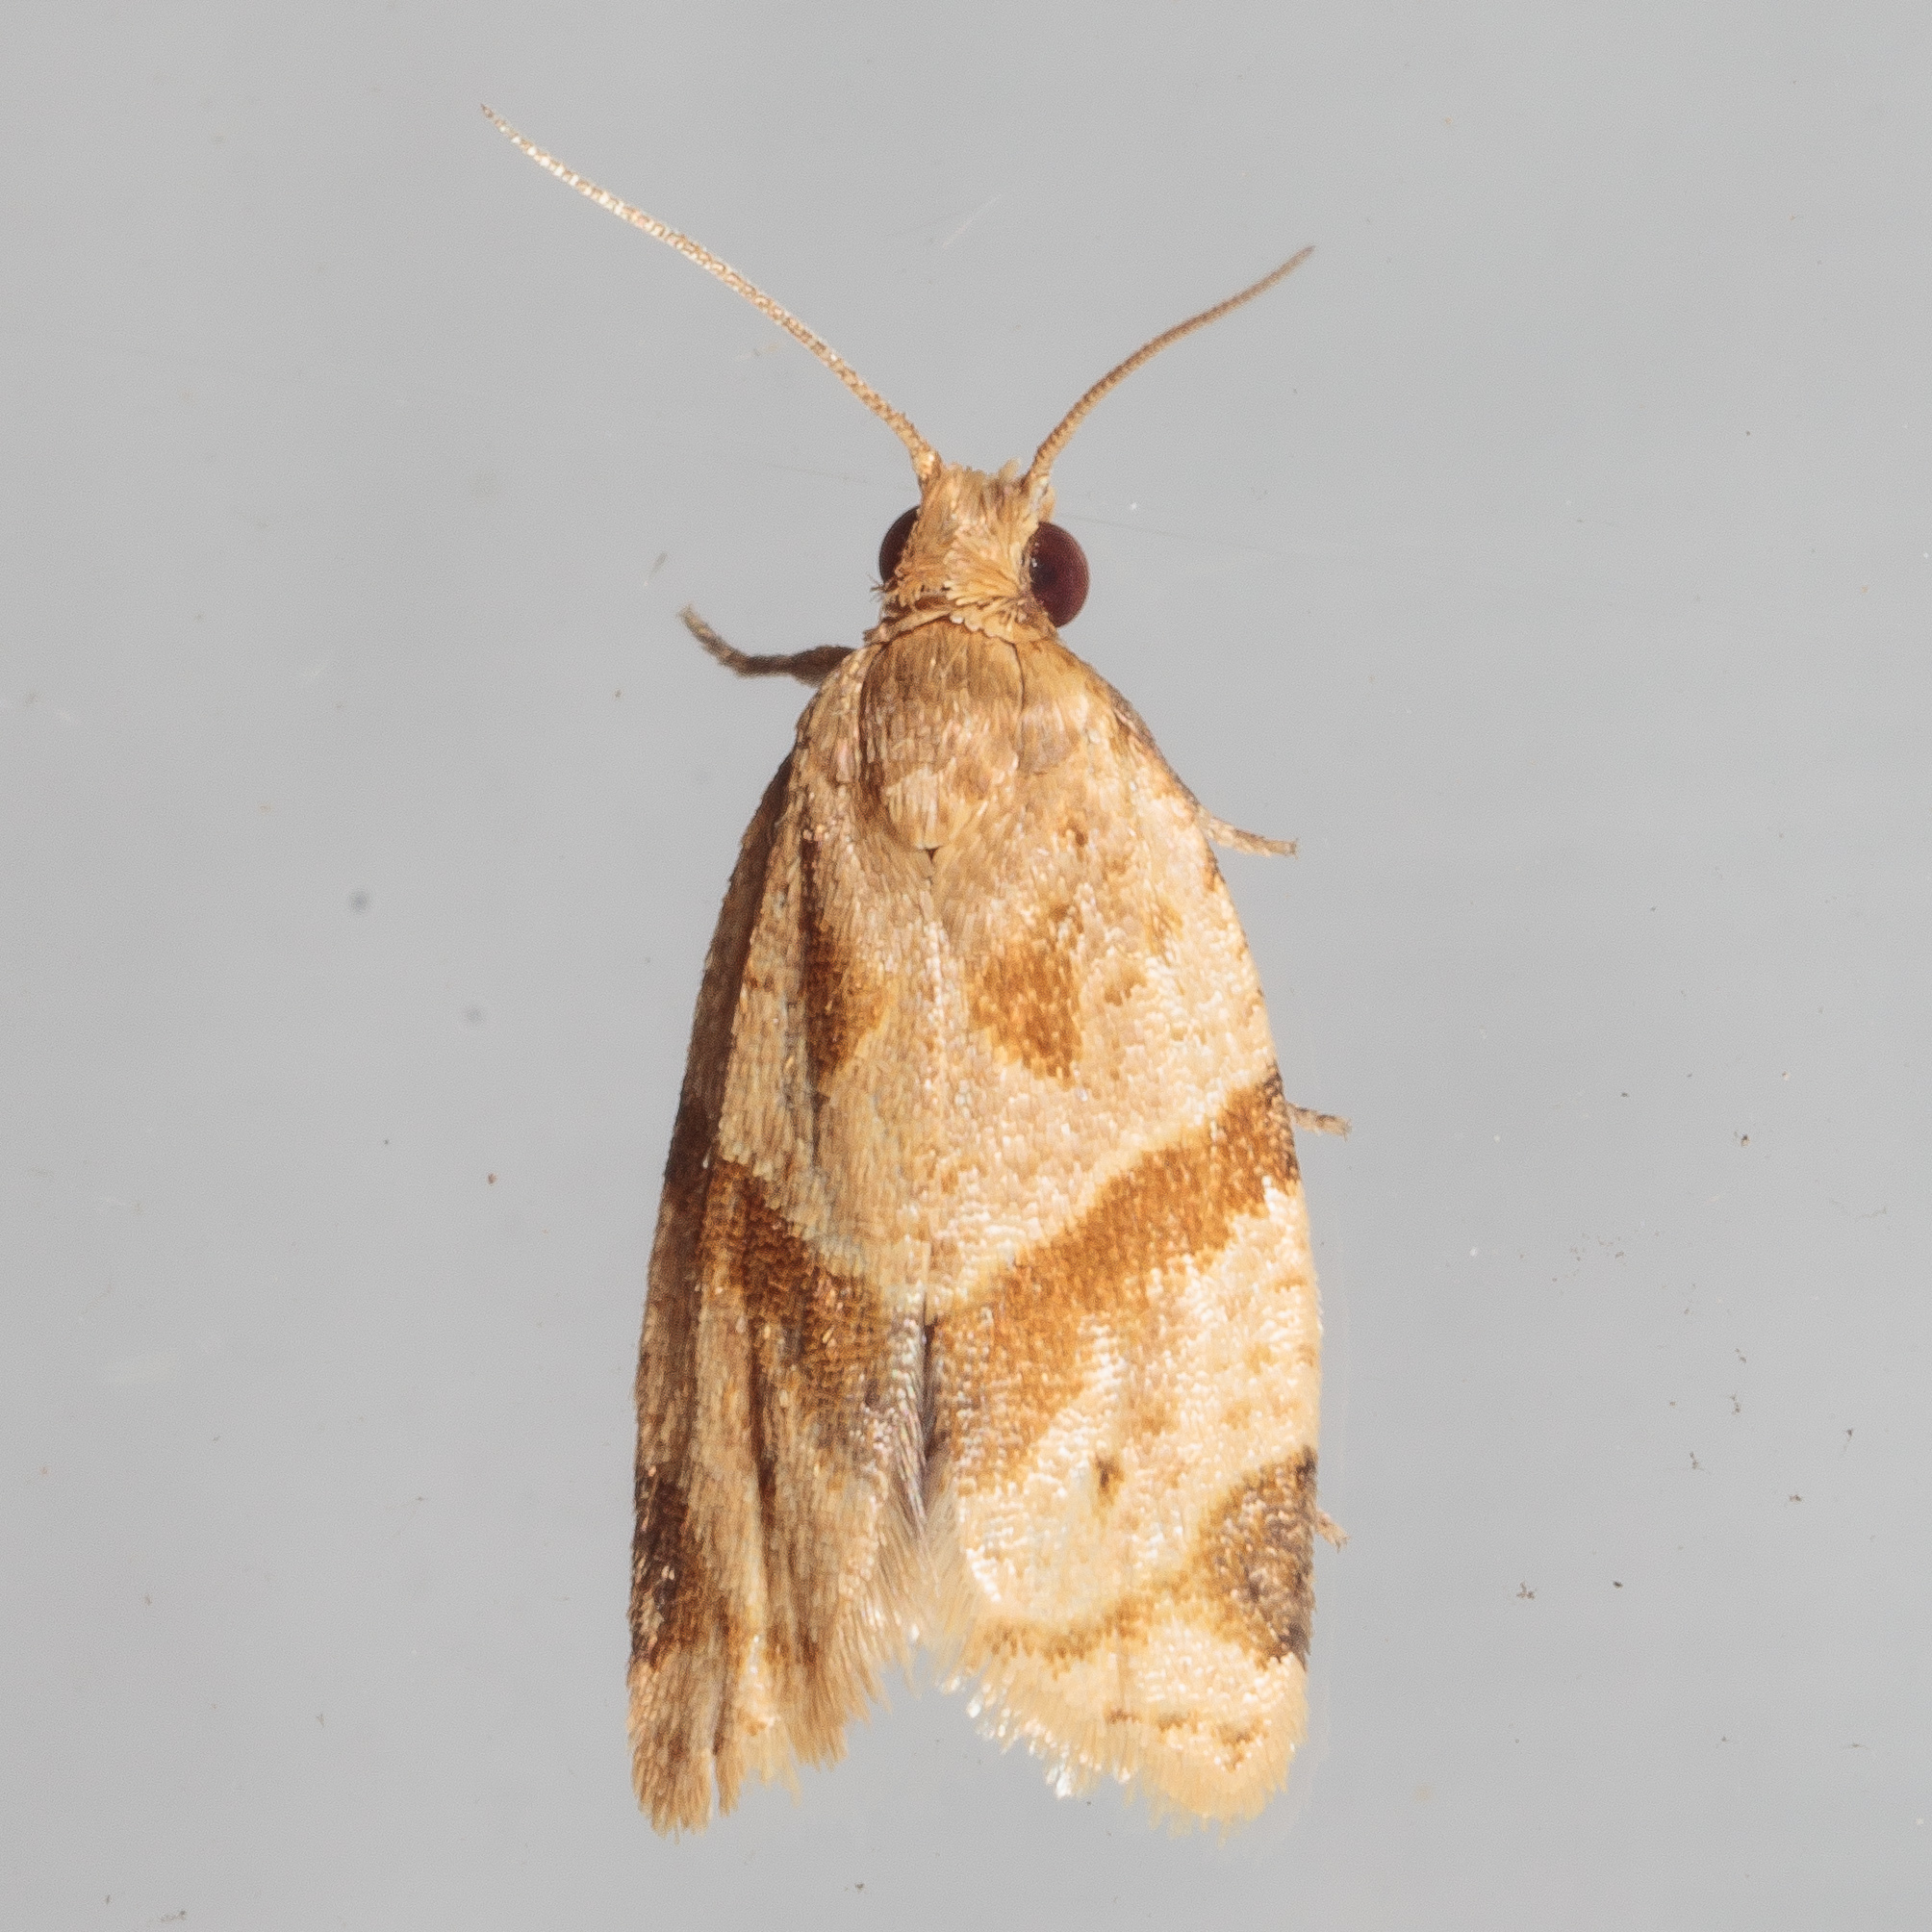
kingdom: Animalia
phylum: Arthropoda
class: Insecta
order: Lepidoptera
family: Tortricidae
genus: Clepsis
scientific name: Clepsis peritana
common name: Garden tortrix
